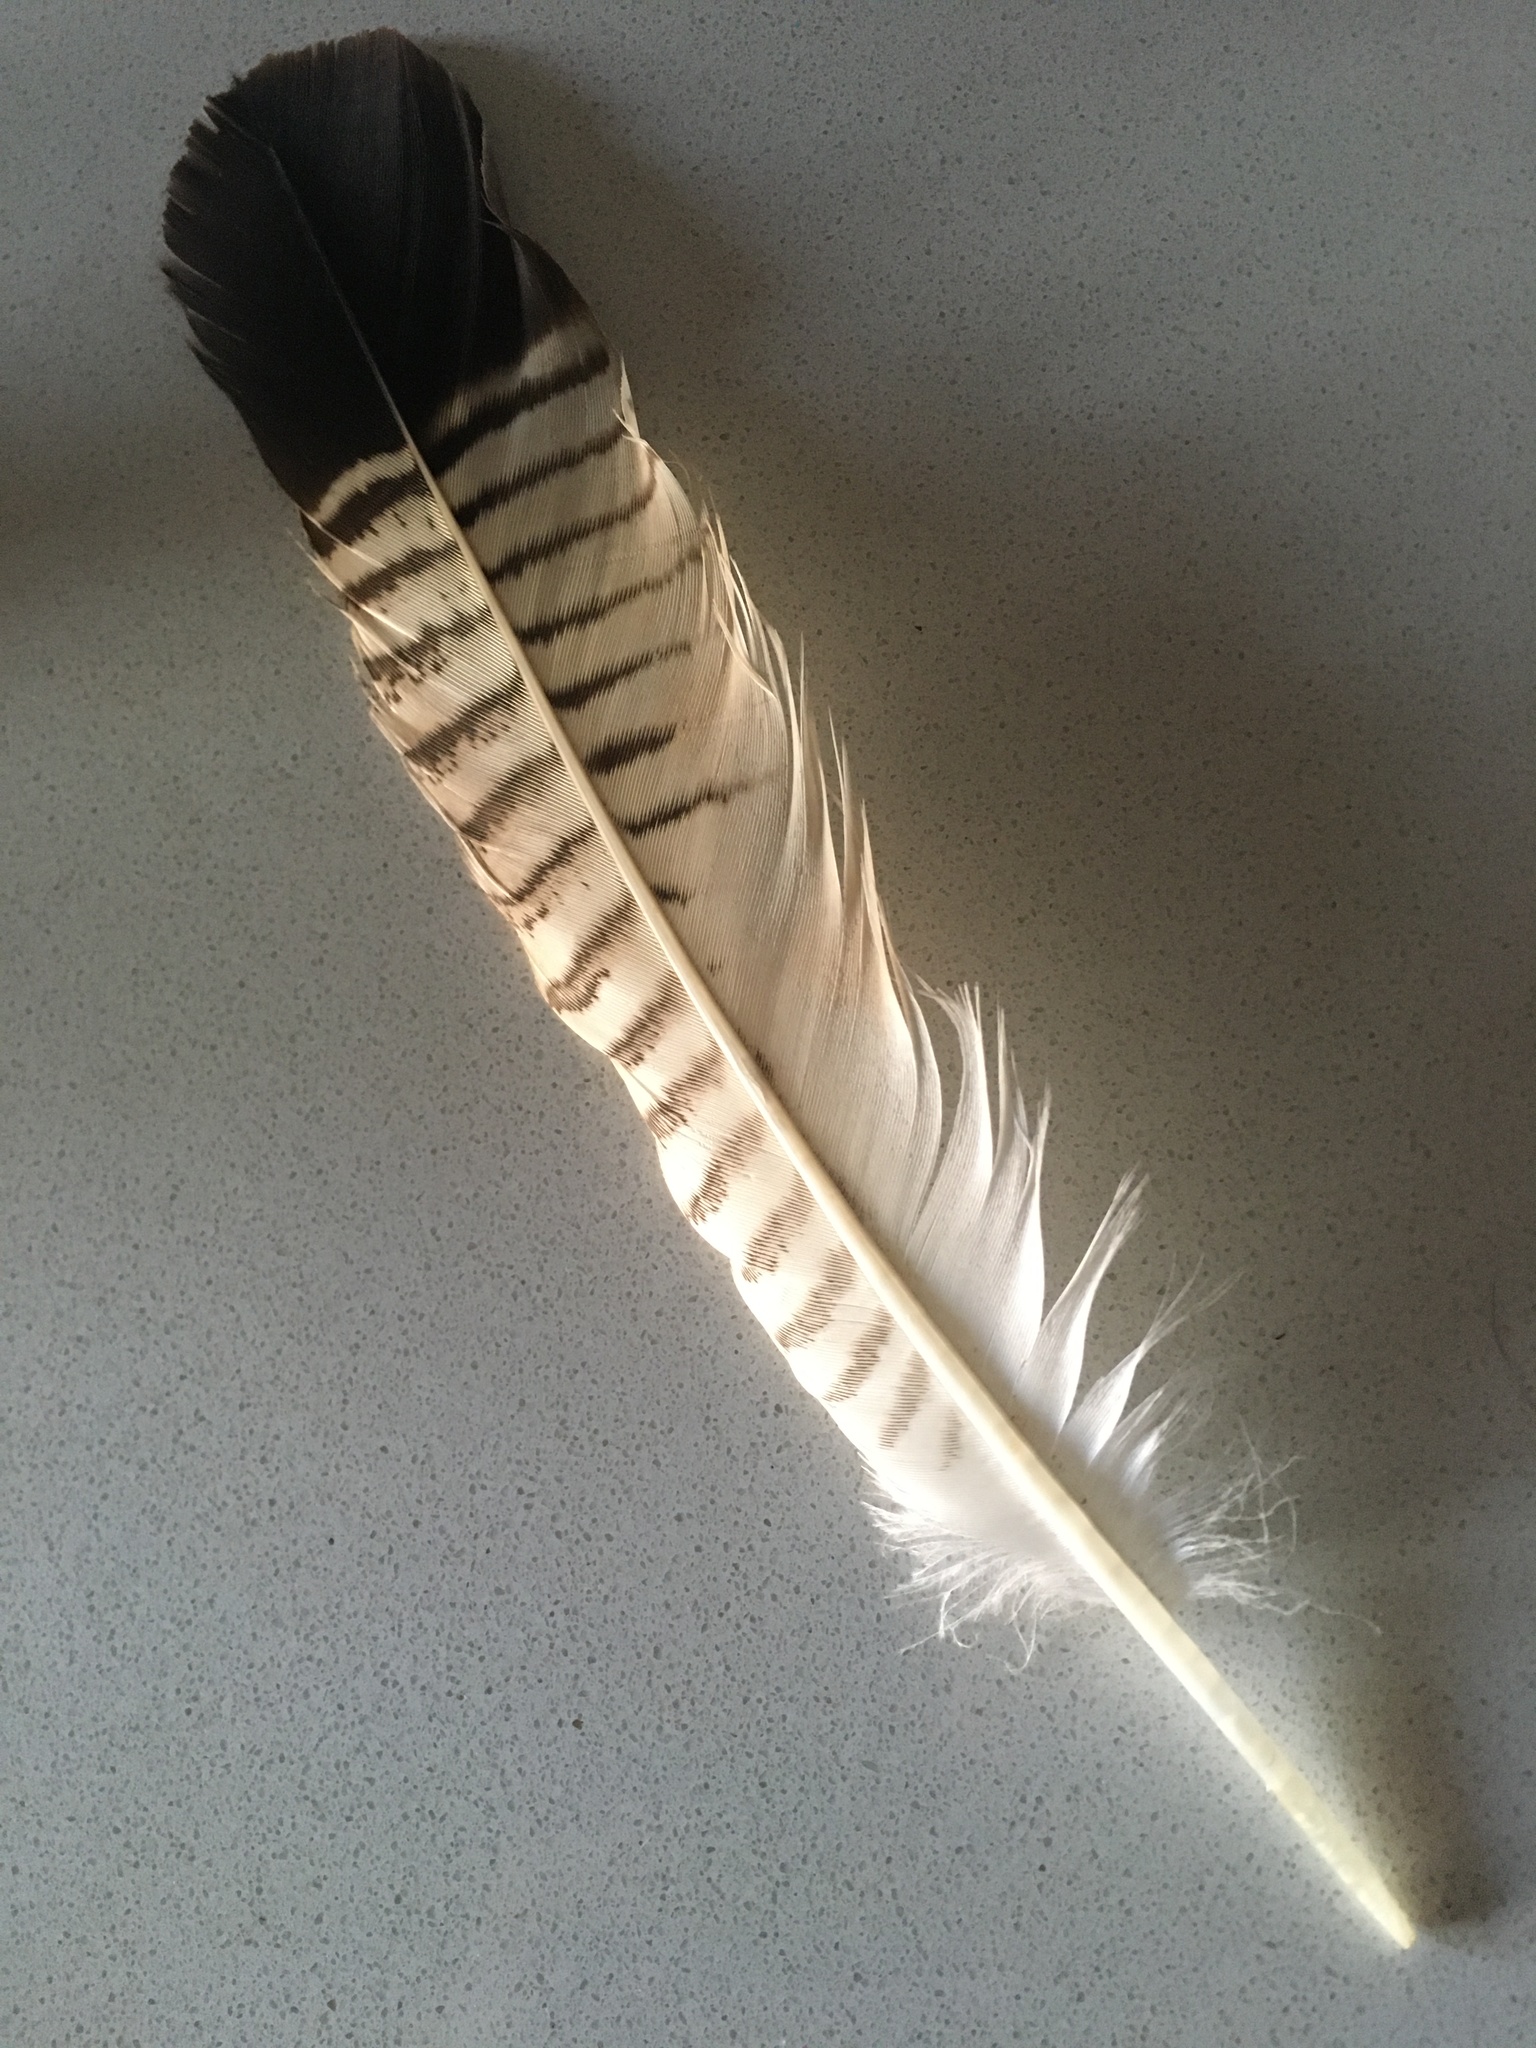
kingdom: Animalia
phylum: Chordata
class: Aves
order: Falconiformes
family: Falconidae
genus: Caracara
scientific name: Caracara plancus
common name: Southern caracara
